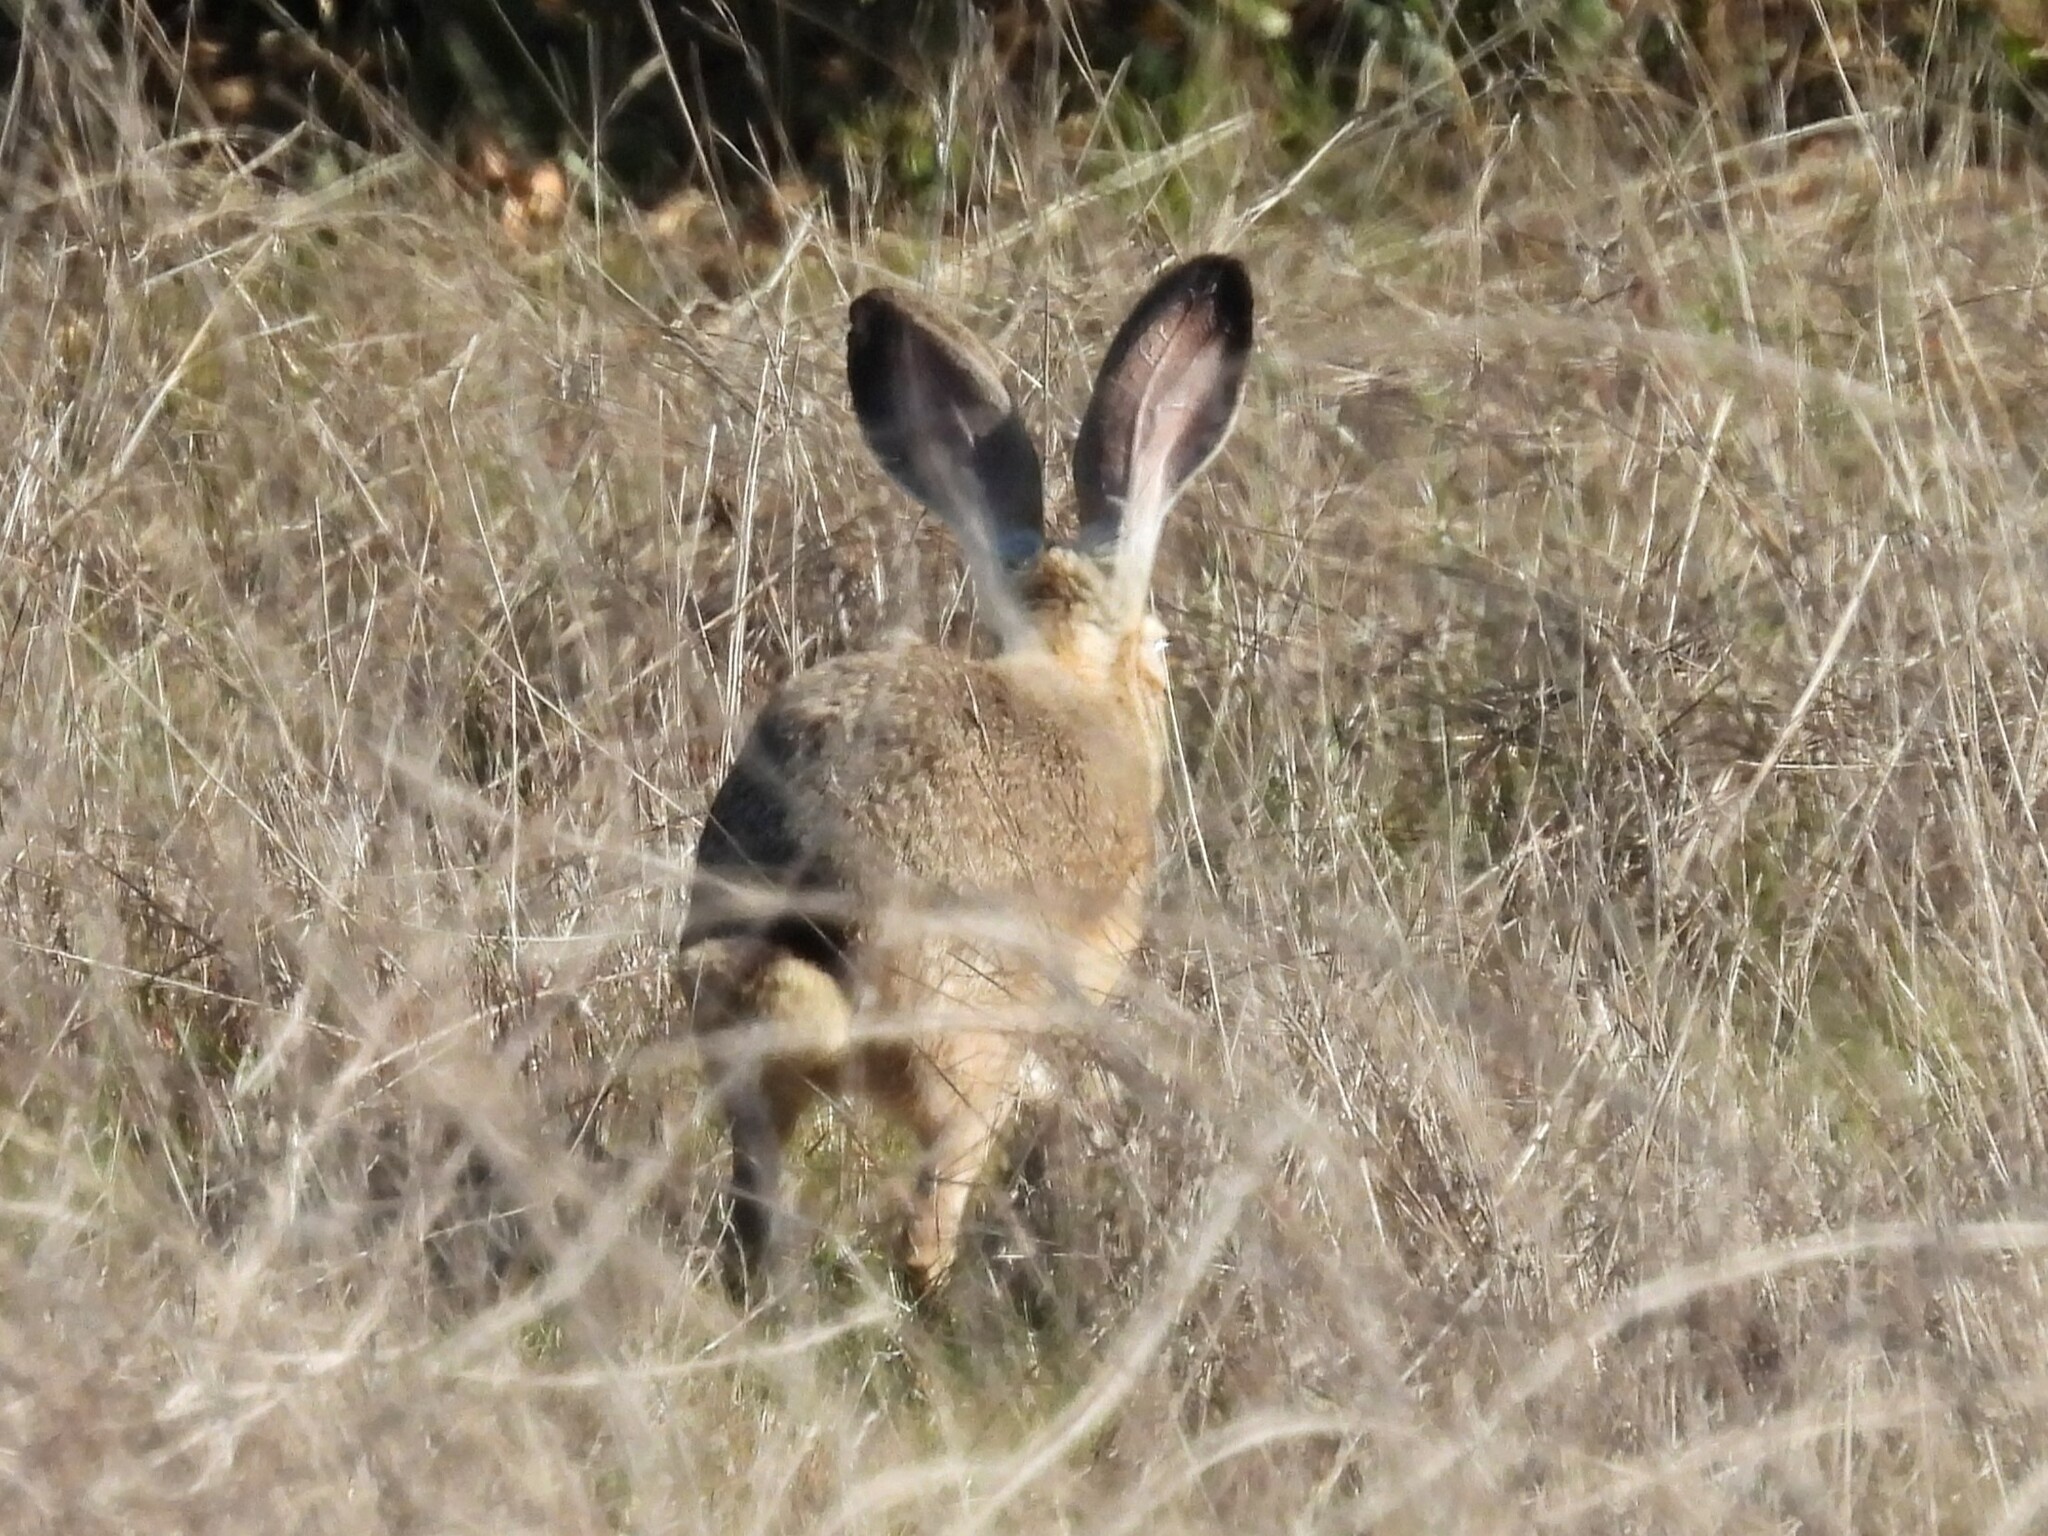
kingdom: Animalia
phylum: Chordata
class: Mammalia
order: Lagomorpha
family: Leporidae
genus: Lepus
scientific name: Lepus californicus
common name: Black-tailed jackrabbit
